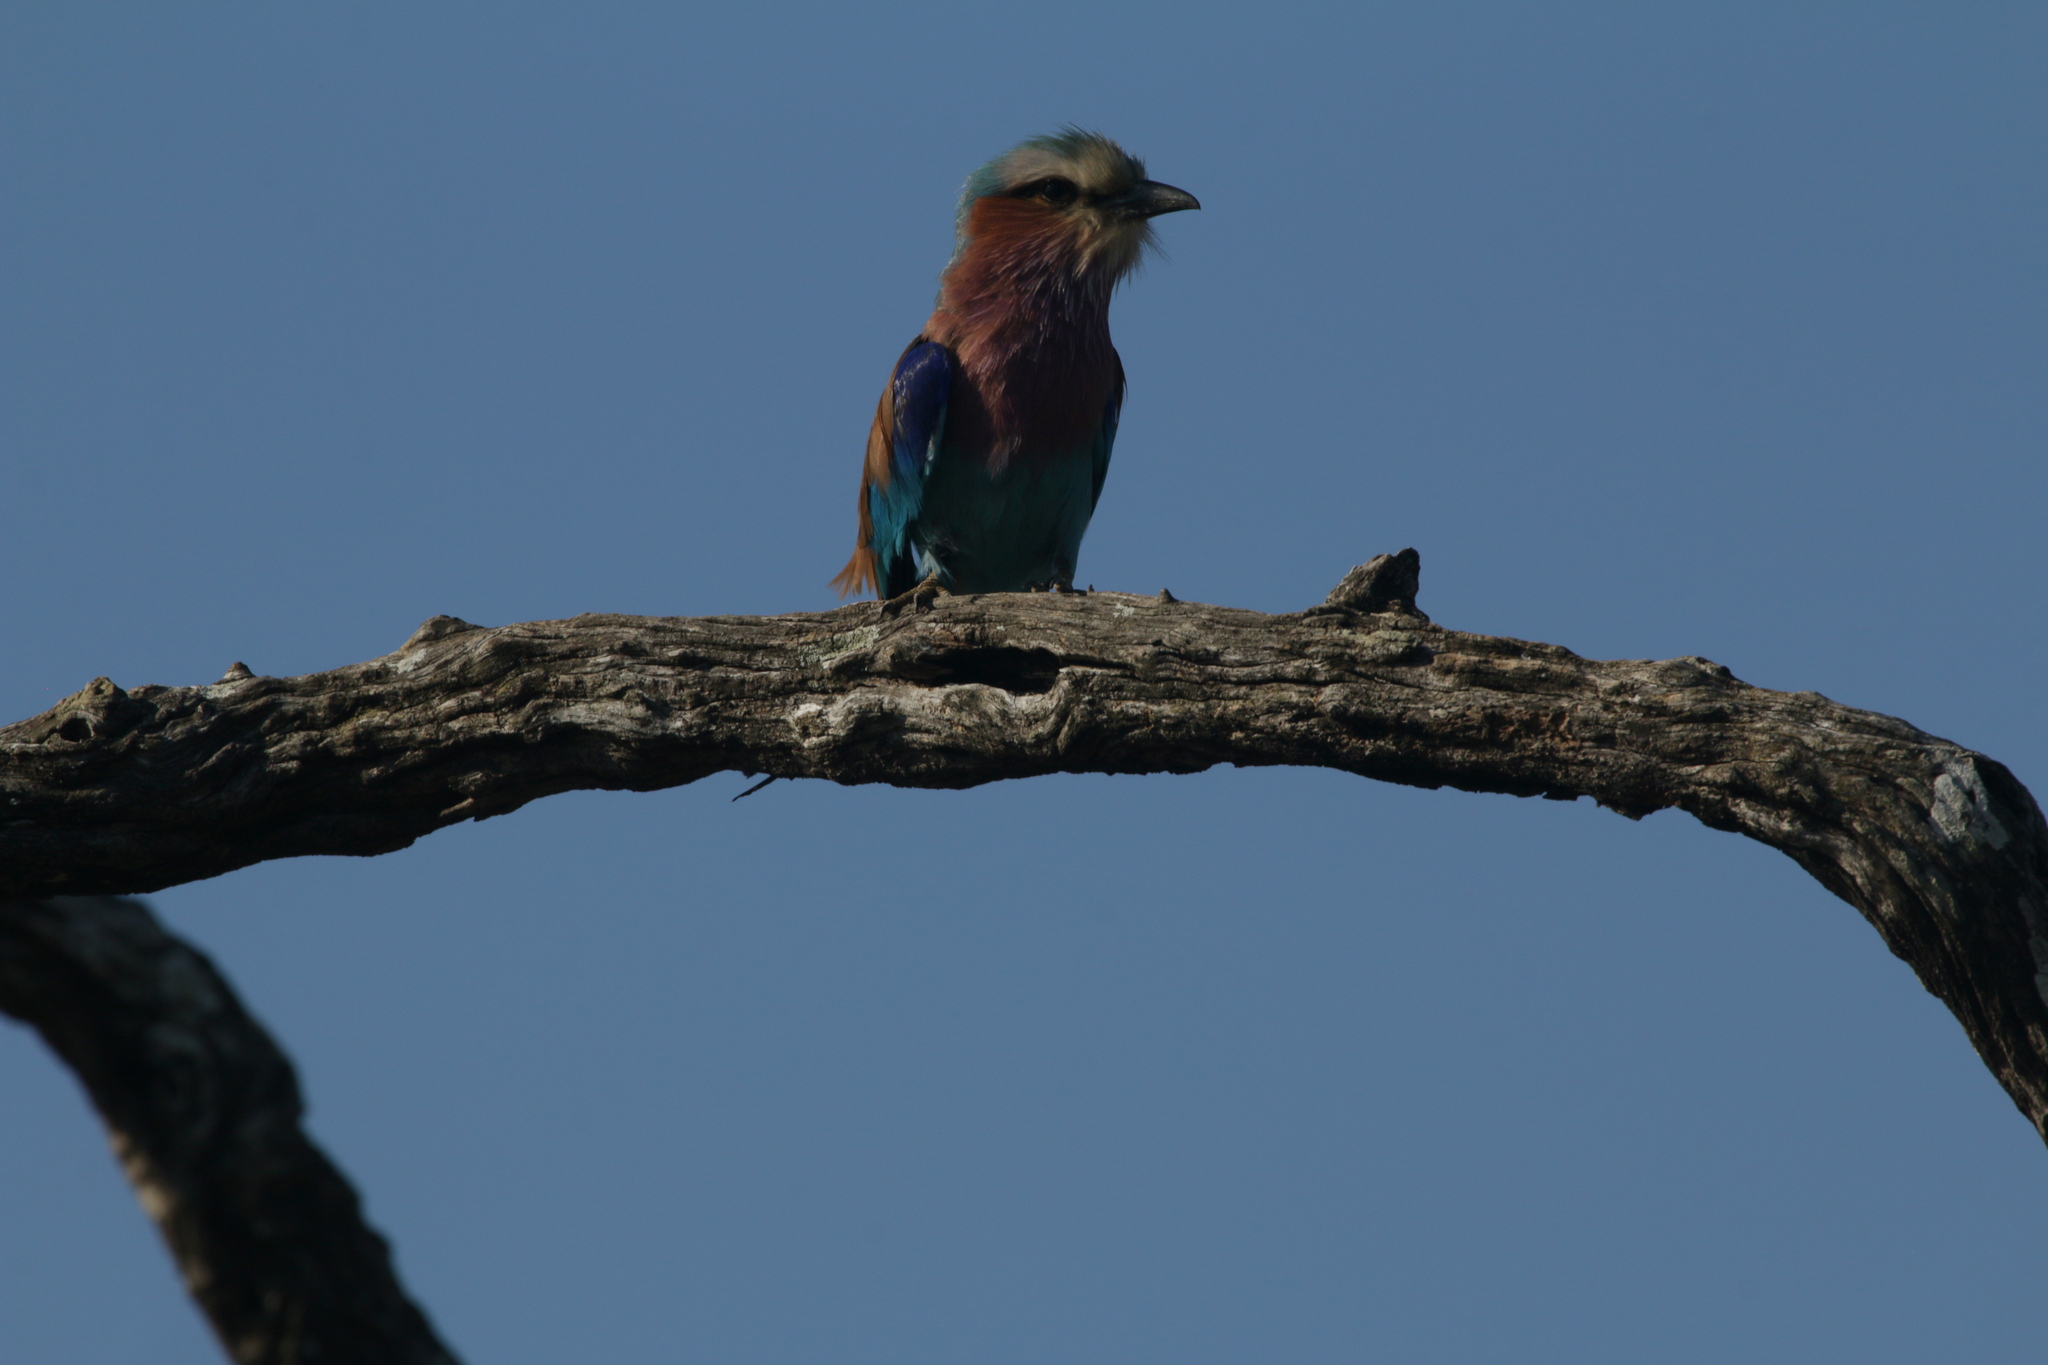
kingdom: Animalia
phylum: Chordata
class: Aves
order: Coraciiformes
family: Coraciidae
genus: Coracias
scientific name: Coracias caudatus
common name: Lilac-breasted roller
